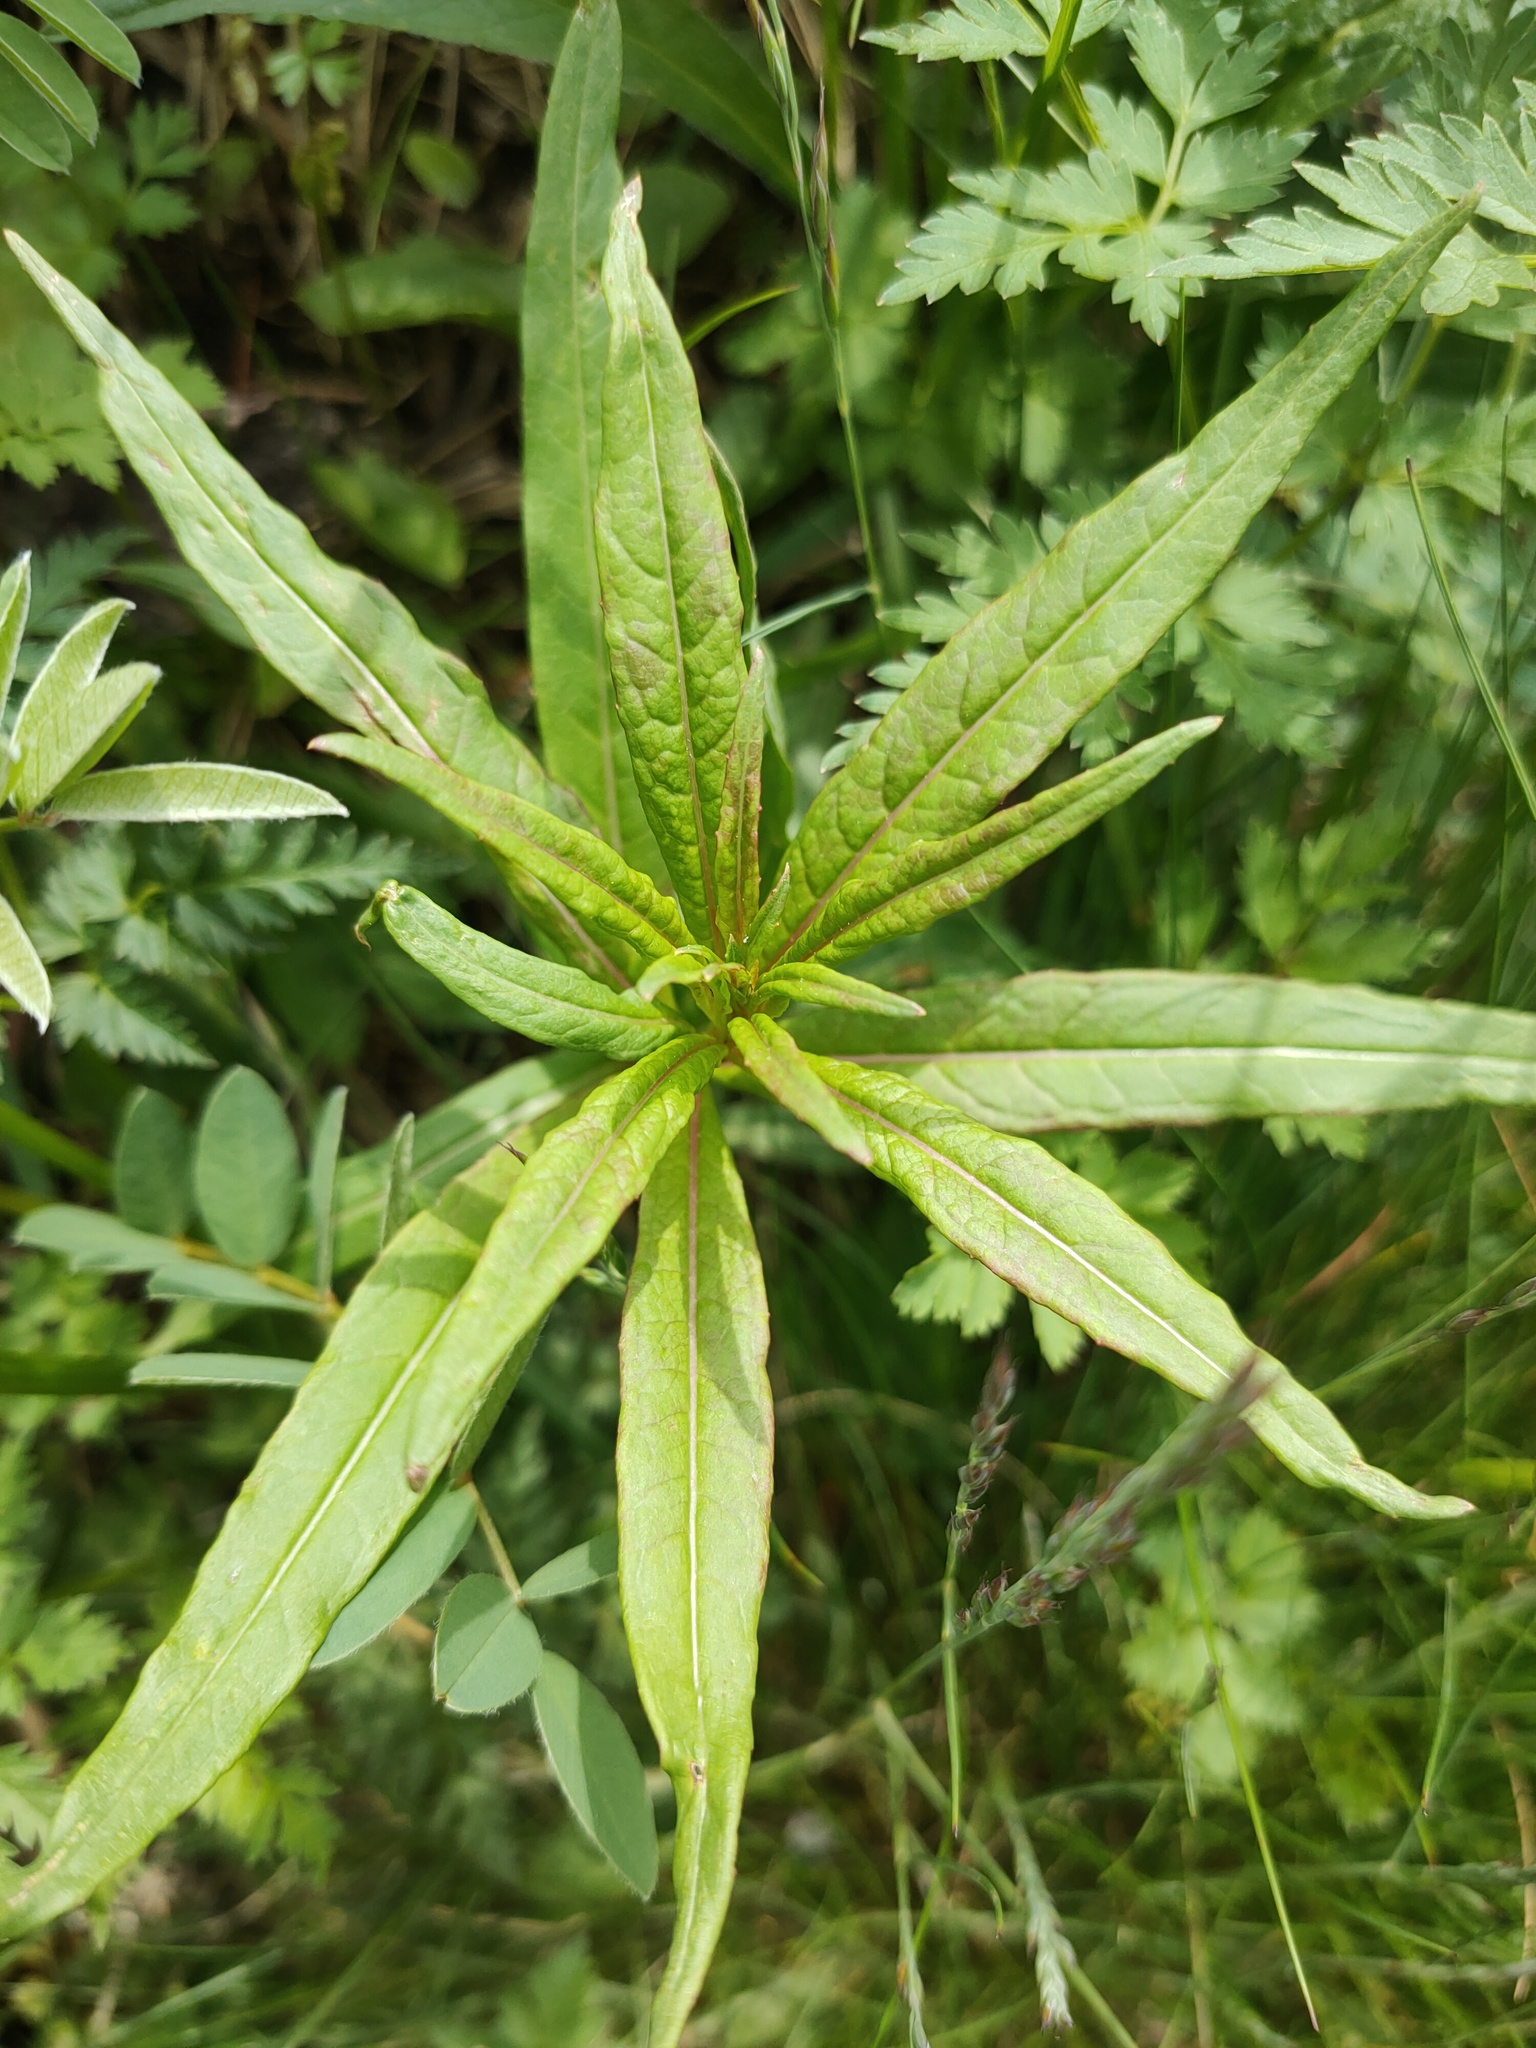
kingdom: Plantae
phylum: Tracheophyta
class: Magnoliopsida
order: Myrtales
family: Onagraceae
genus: Chamaenerion
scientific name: Chamaenerion angustifolium
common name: Fireweed
